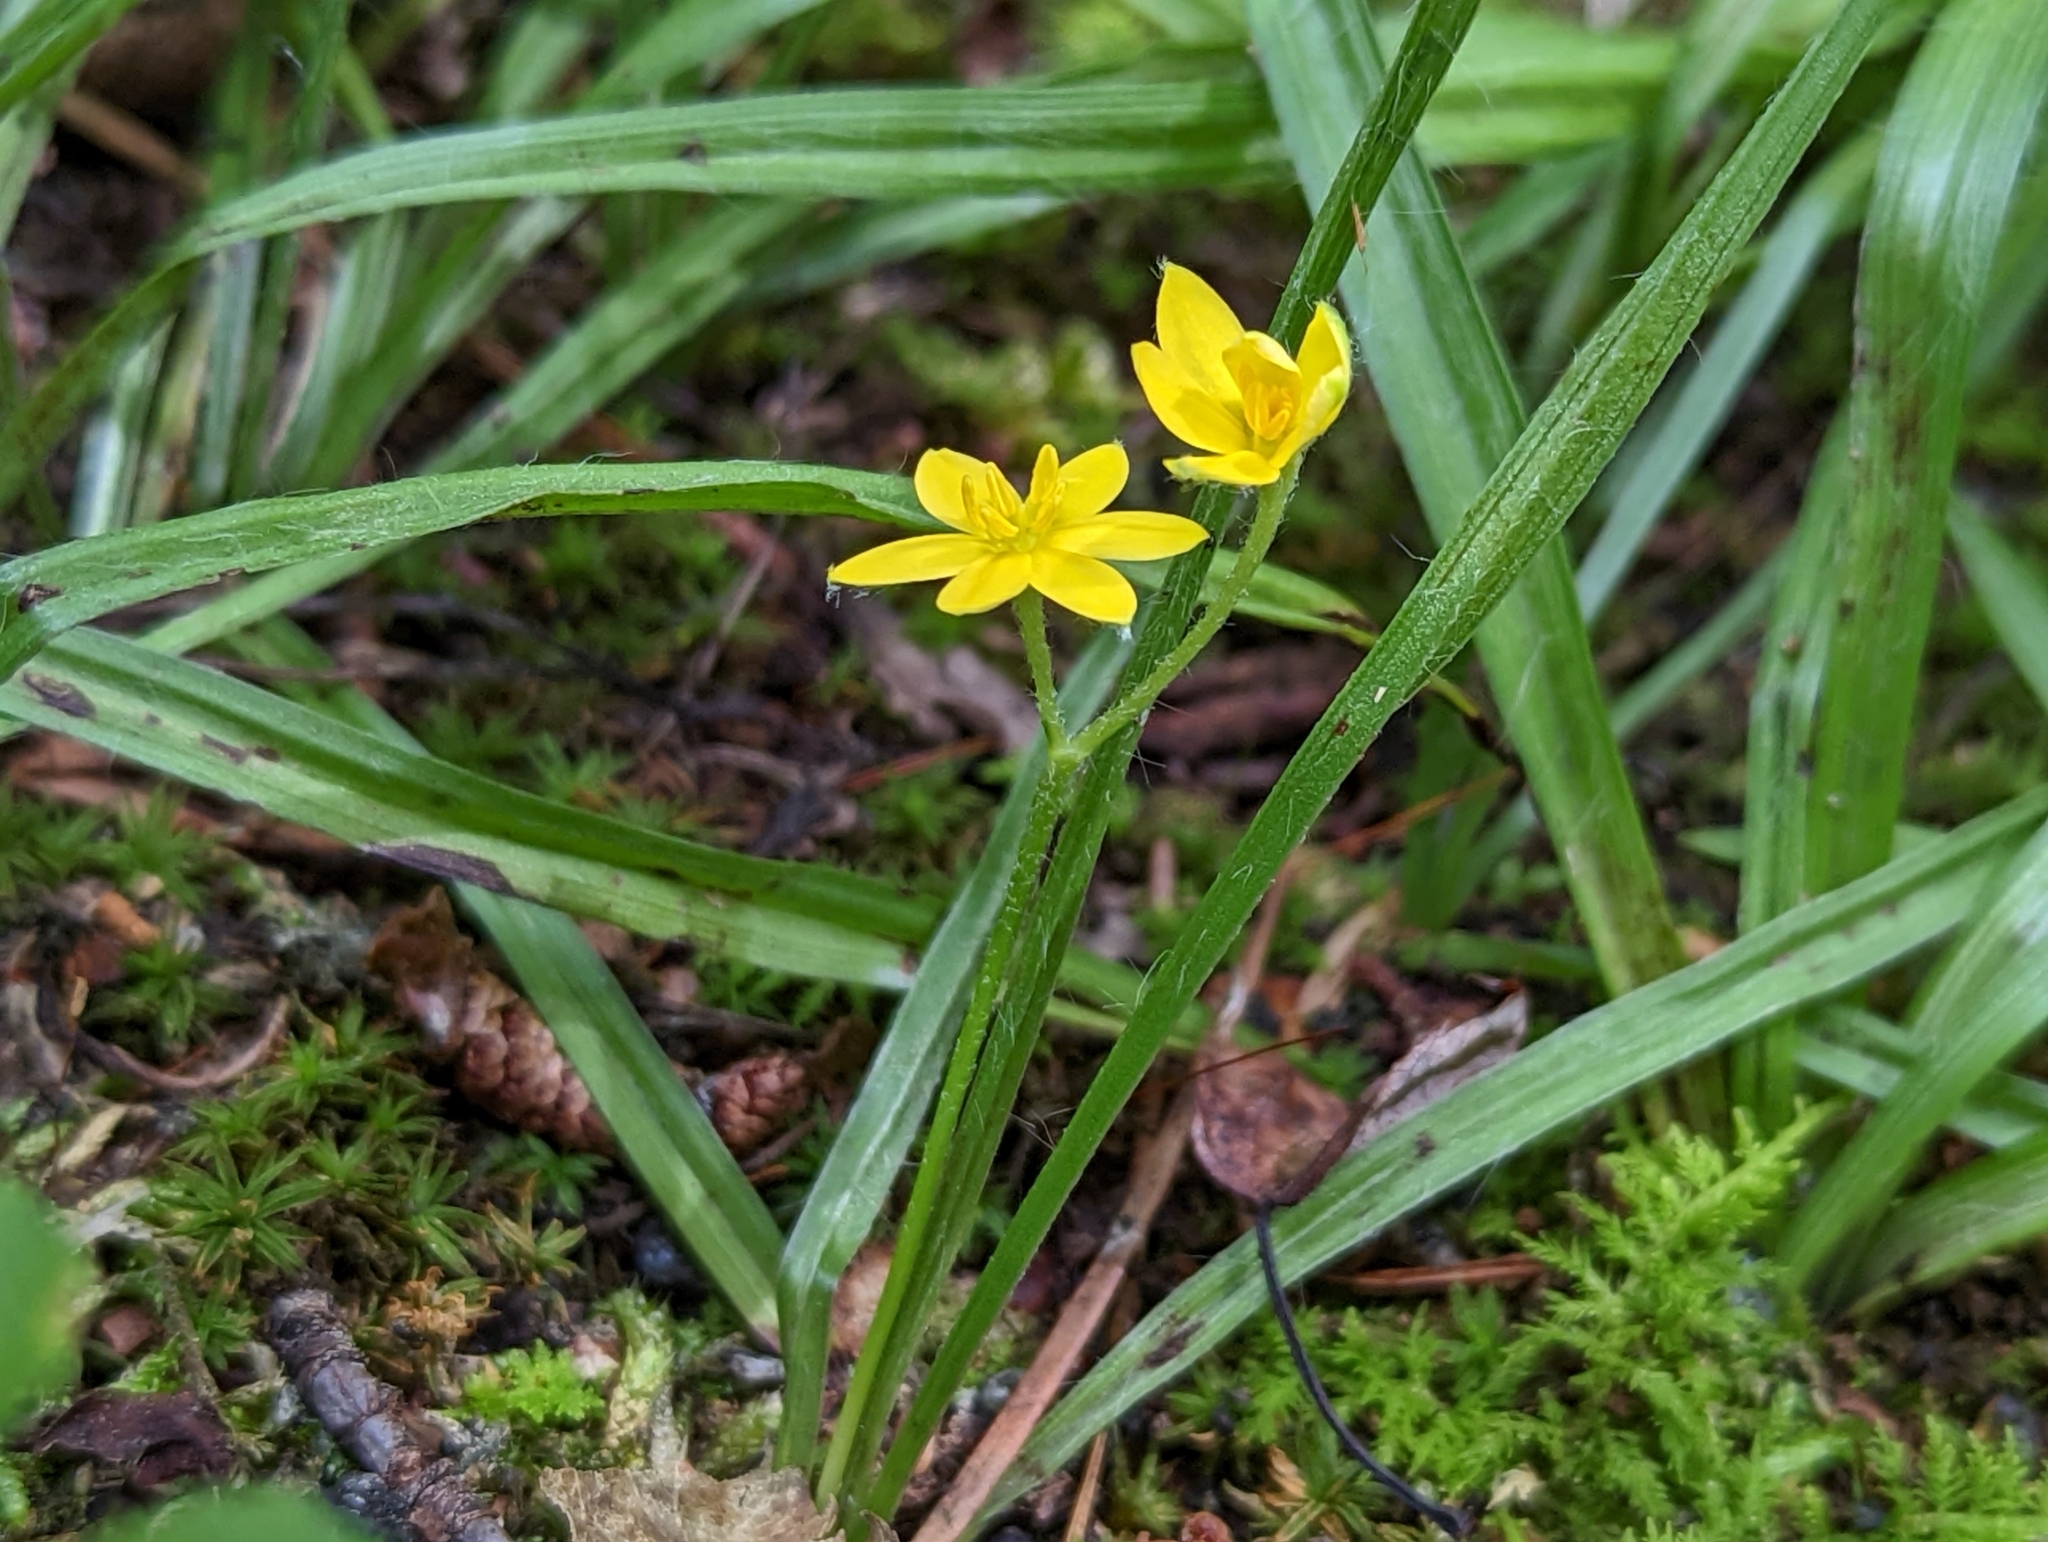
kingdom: Plantae
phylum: Tracheophyta
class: Liliopsida
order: Asparagales
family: Hypoxidaceae
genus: Hypoxis
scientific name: Hypoxis hirsuta
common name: Common goldstar
